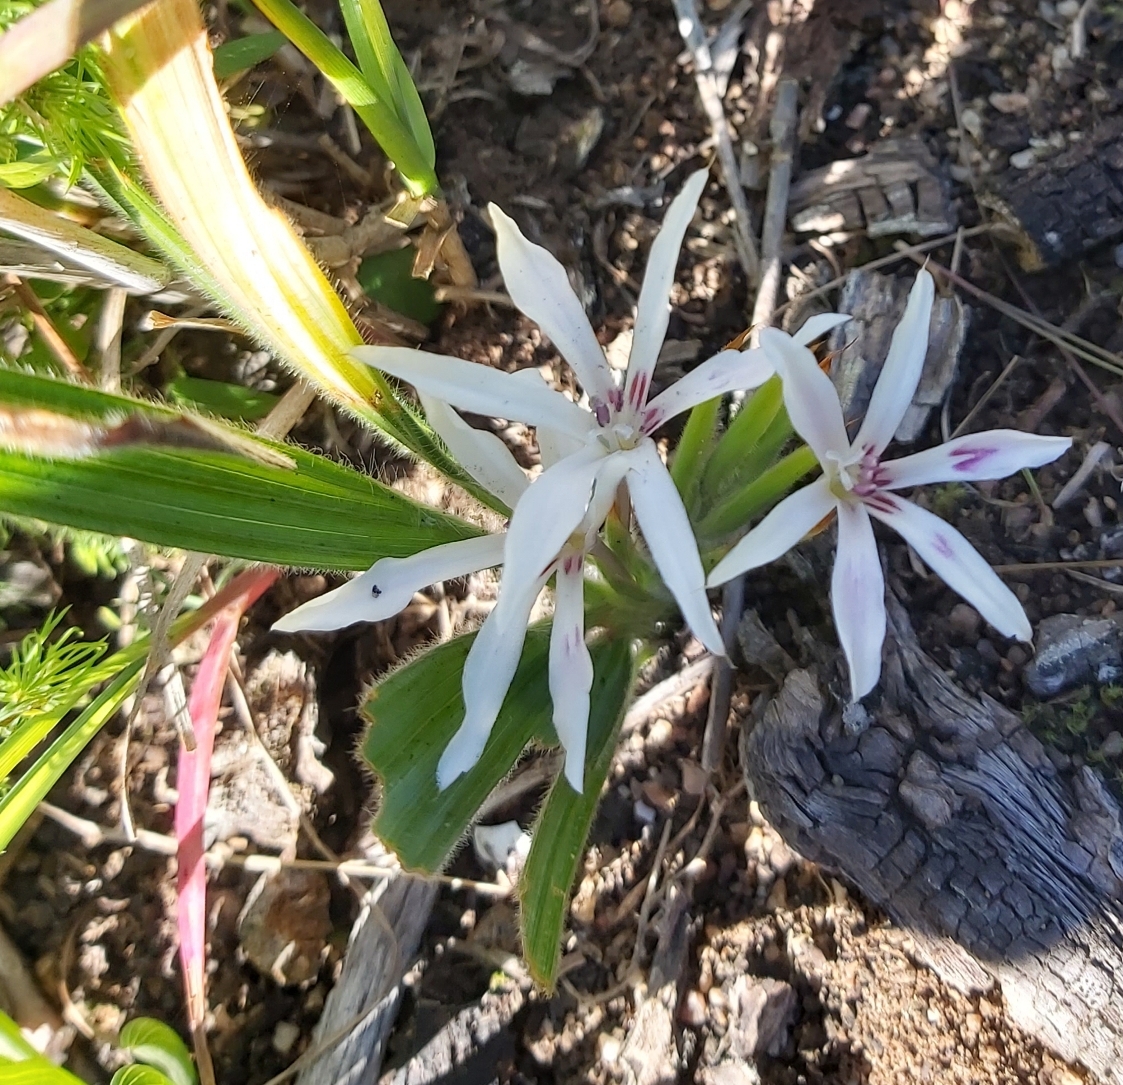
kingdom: Plantae
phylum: Tracheophyta
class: Liliopsida
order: Asparagales
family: Iridaceae
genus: Babiana
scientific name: Babiana tubiflora
